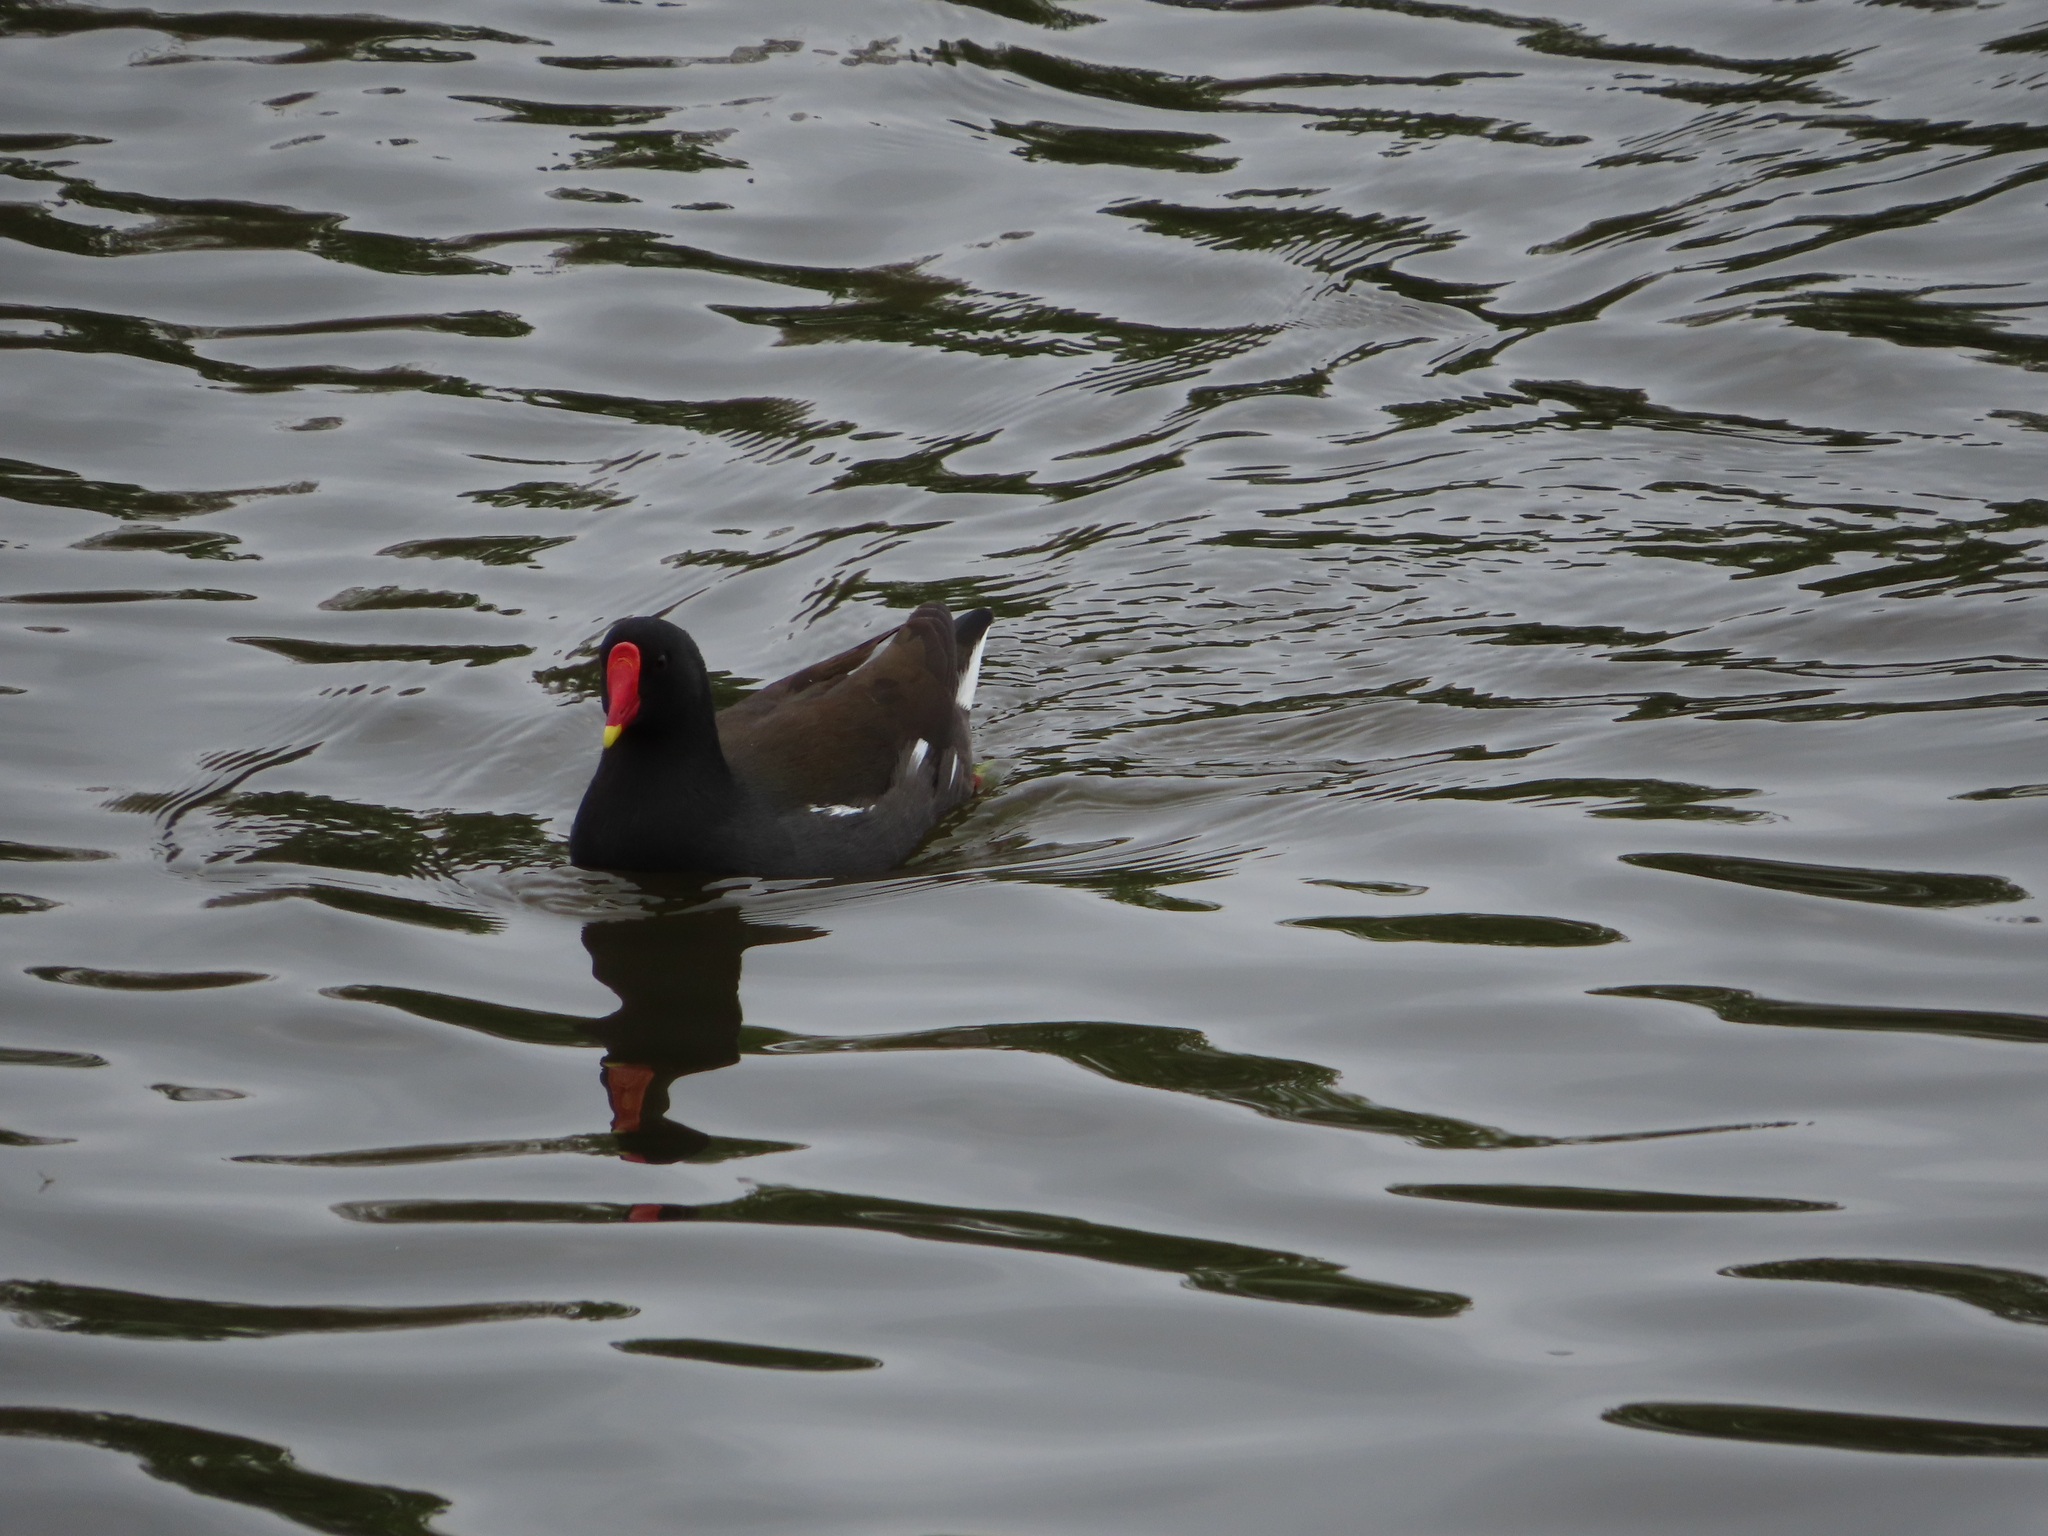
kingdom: Animalia
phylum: Chordata
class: Aves
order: Gruiformes
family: Rallidae
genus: Gallinula
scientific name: Gallinula chloropus
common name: Common moorhen
